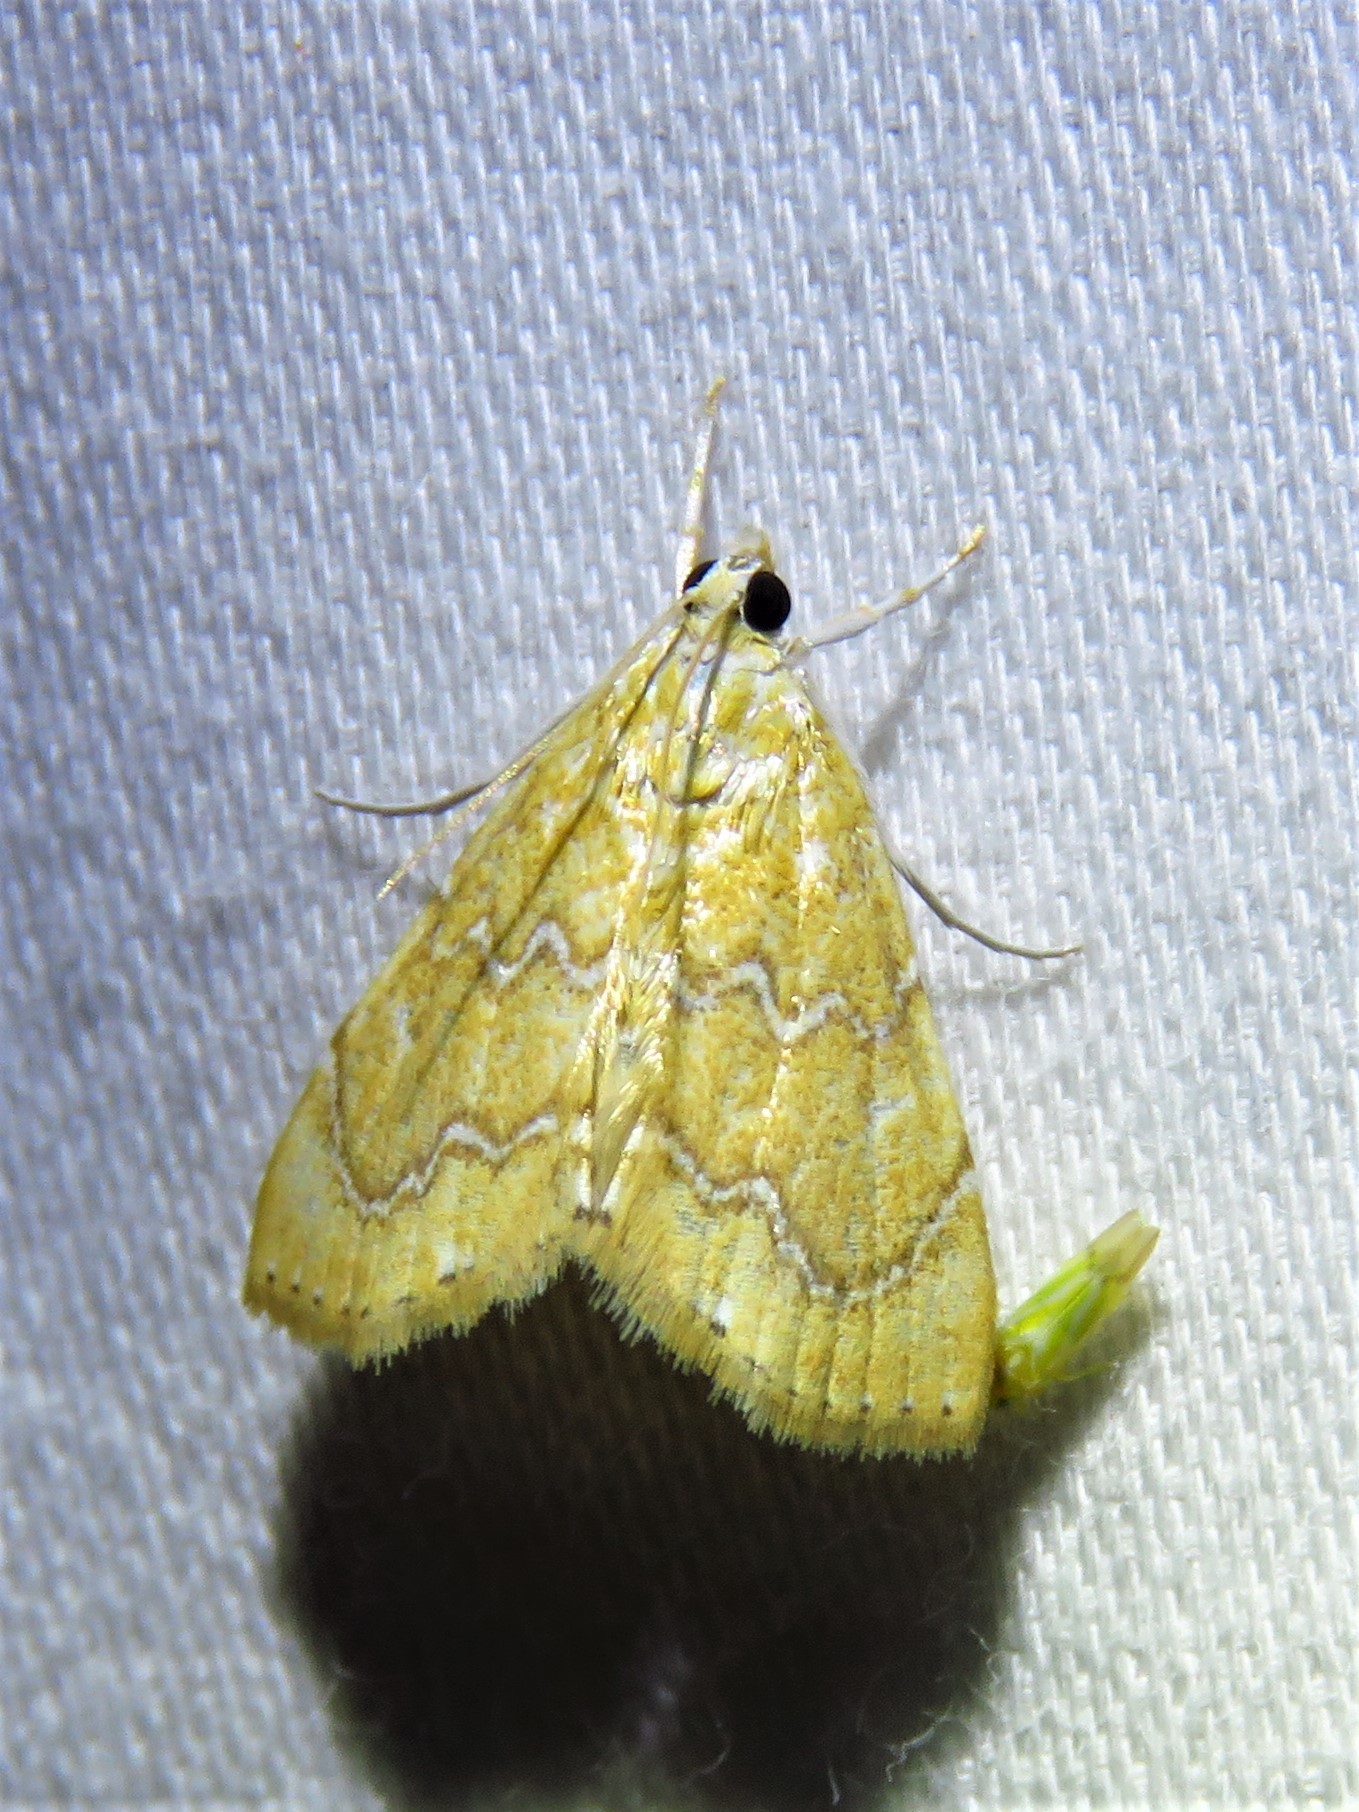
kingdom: Animalia
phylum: Arthropoda
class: Insecta
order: Lepidoptera
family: Crambidae
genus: Glaphyria
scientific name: Glaphyria sesquistrialis
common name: White-roped glaphyria
